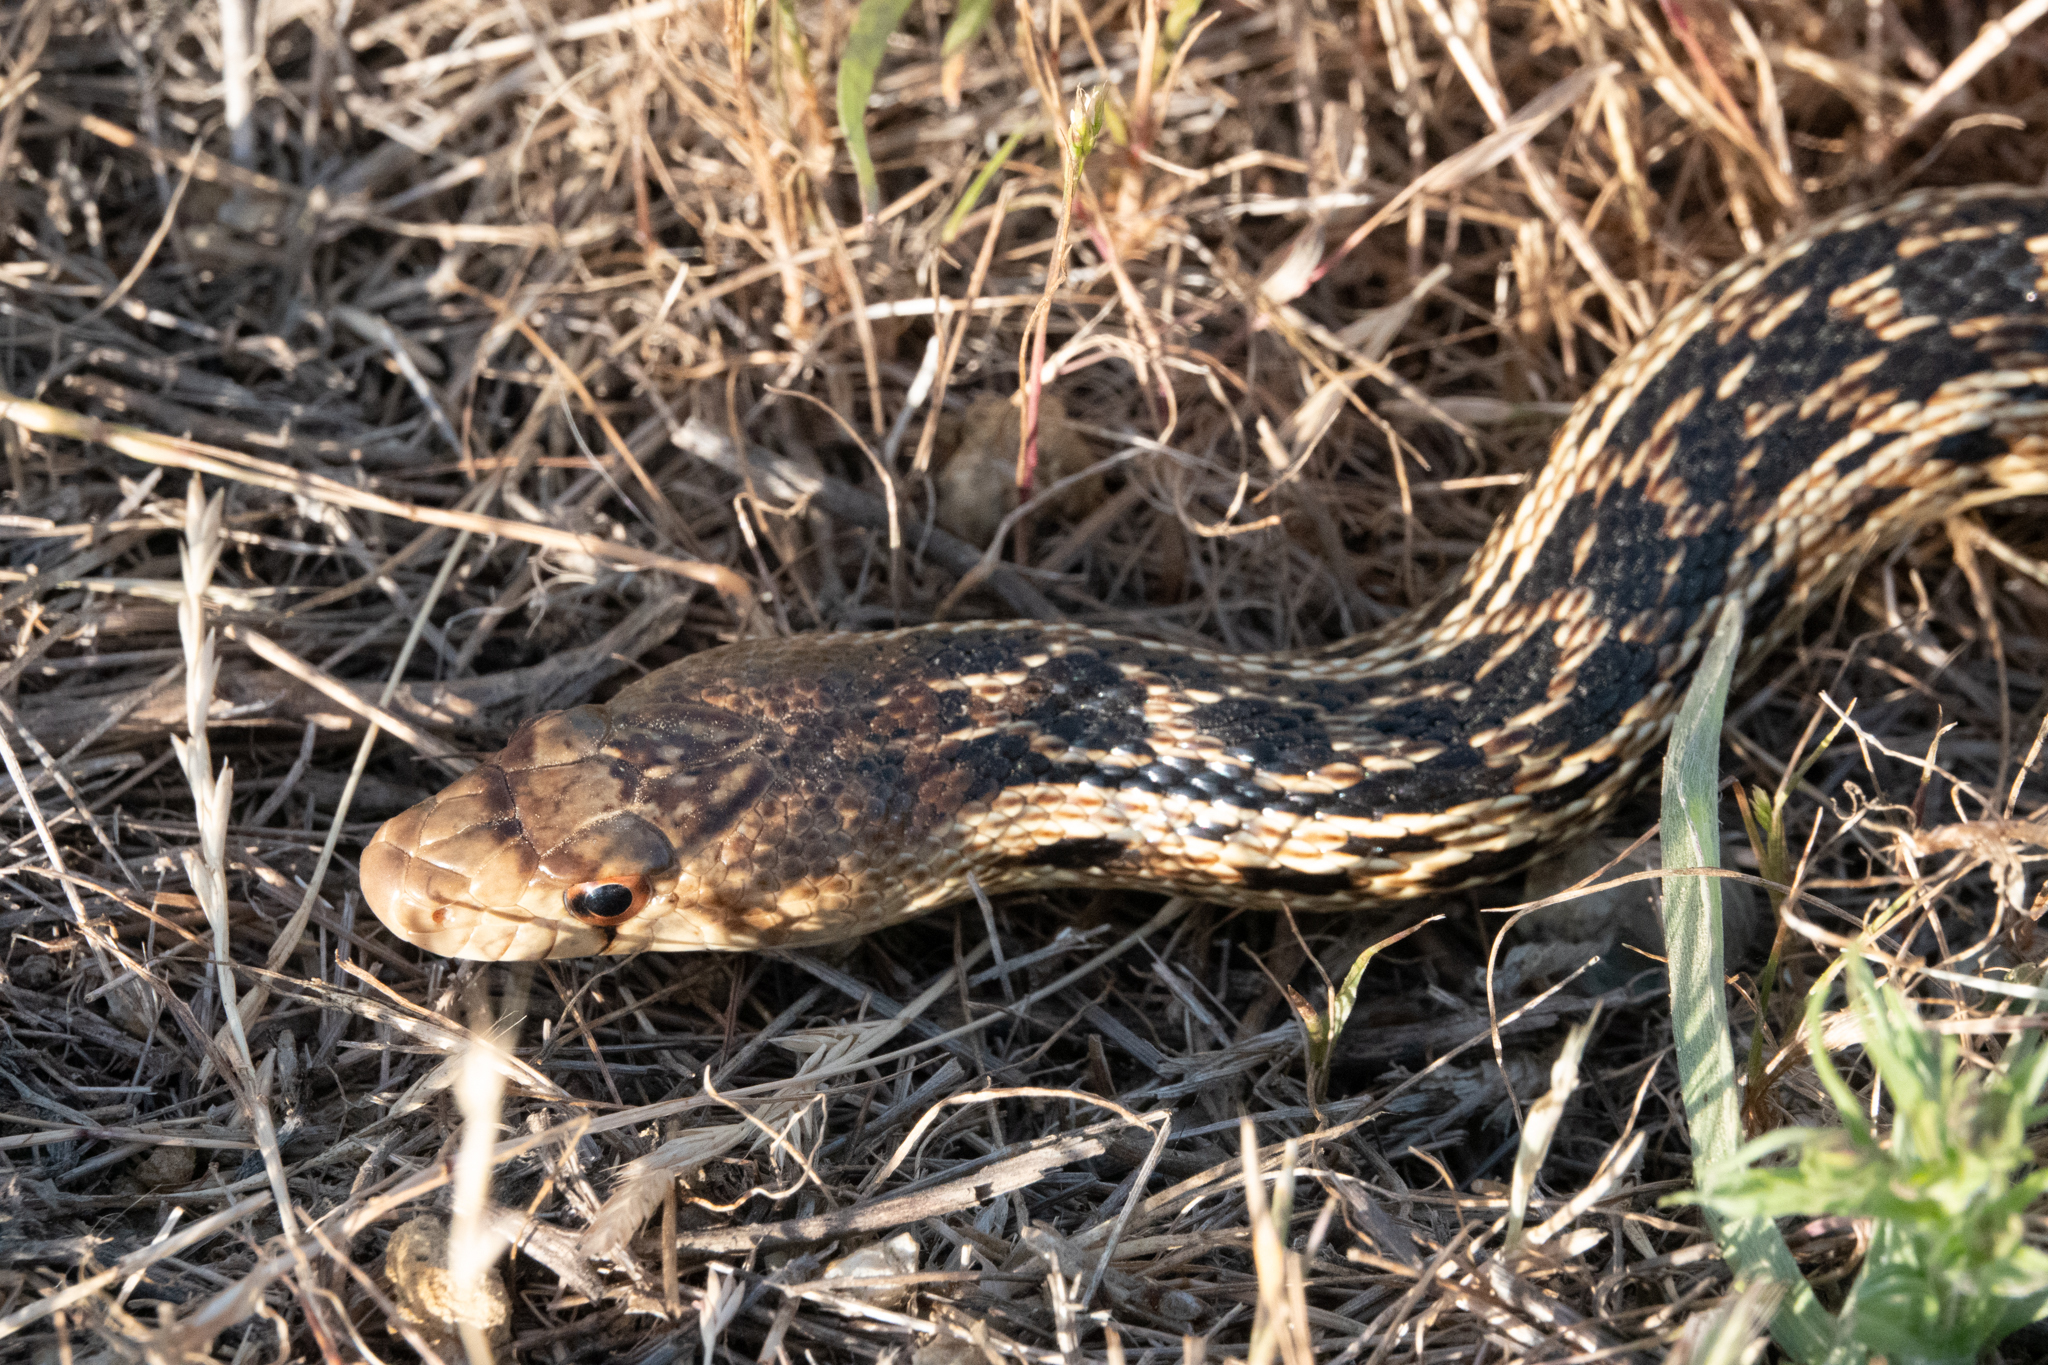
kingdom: Animalia
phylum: Chordata
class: Squamata
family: Colubridae
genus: Pituophis
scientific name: Pituophis catenifer
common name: Gopher snake
